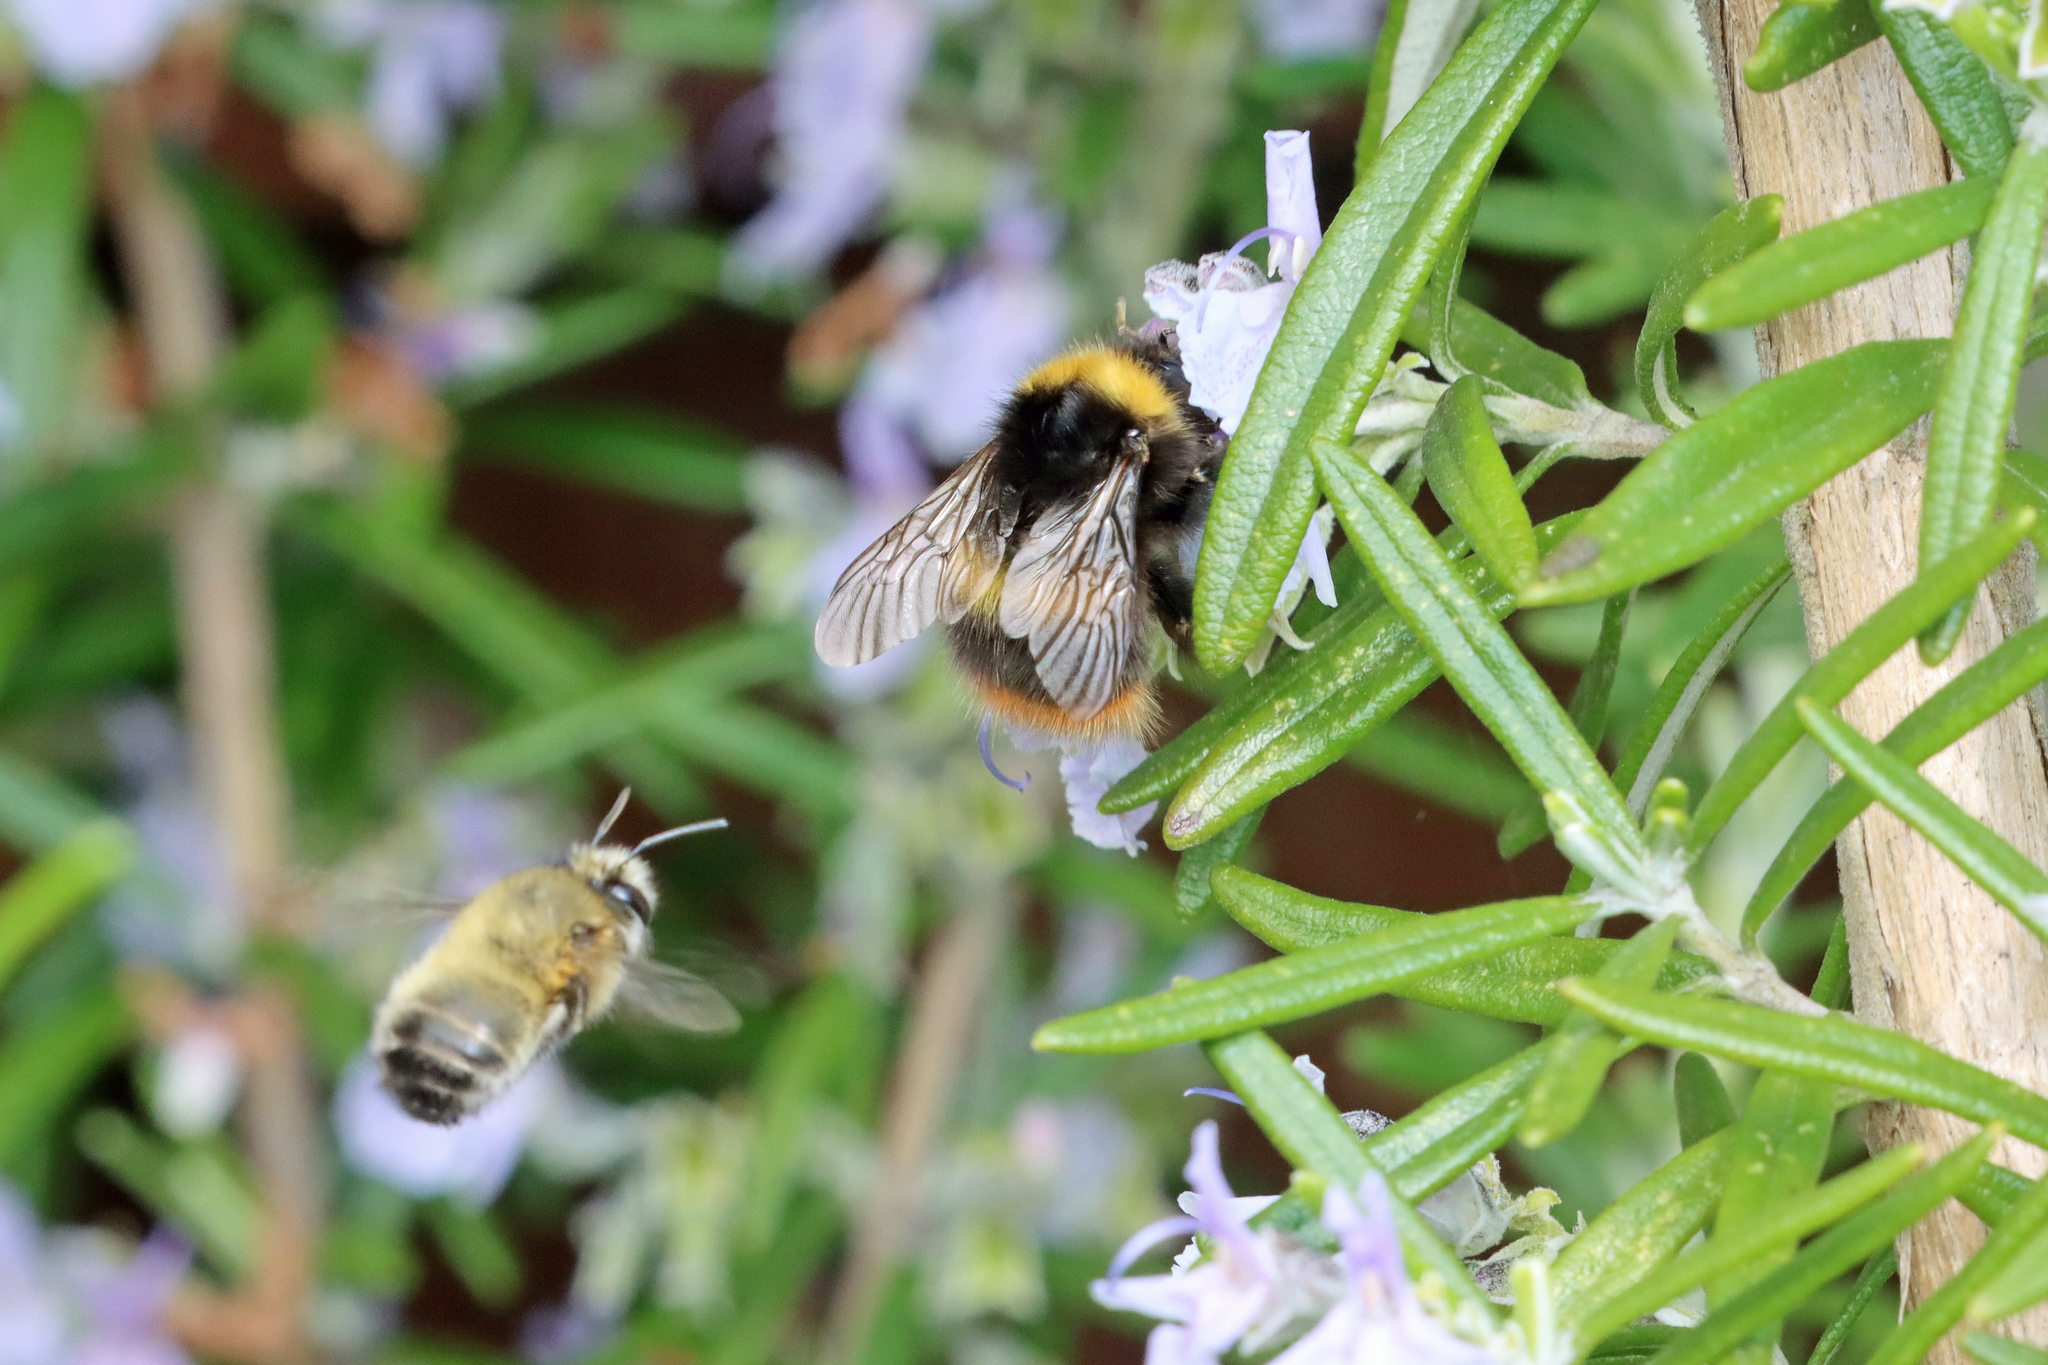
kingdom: Animalia
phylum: Arthropoda
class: Insecta
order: Hymenoptera
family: Apidae
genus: Bombus
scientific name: Bombus pratorum
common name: Early humble-bee
